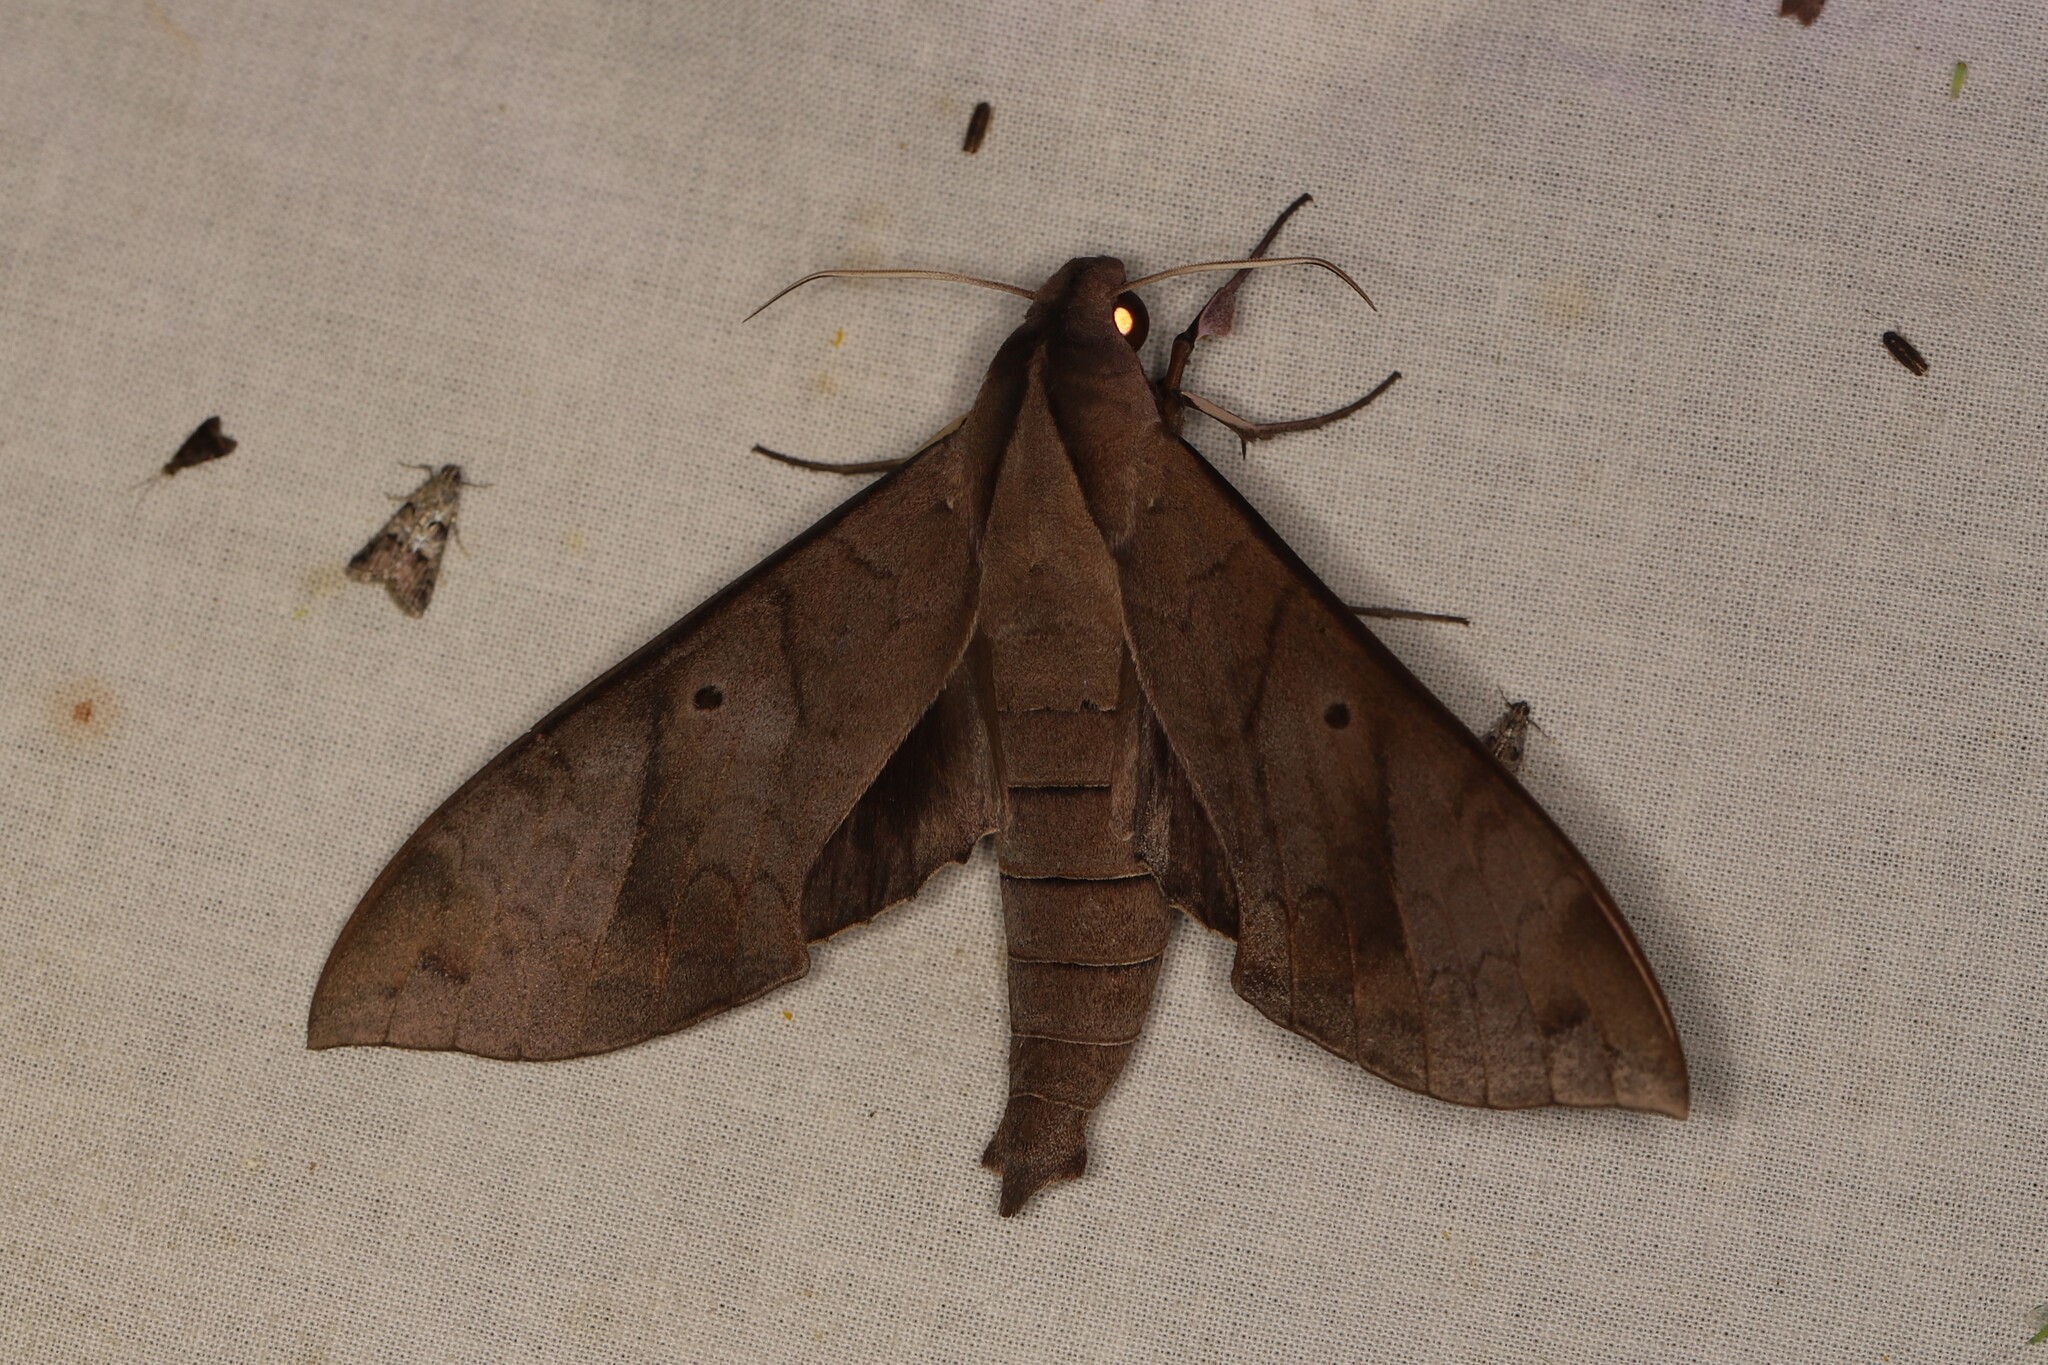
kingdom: Animalia
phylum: Arthropoda
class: Insecta
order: Lepidoptera
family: Sphingidae
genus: Pachylia
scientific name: Pachylia darceta
